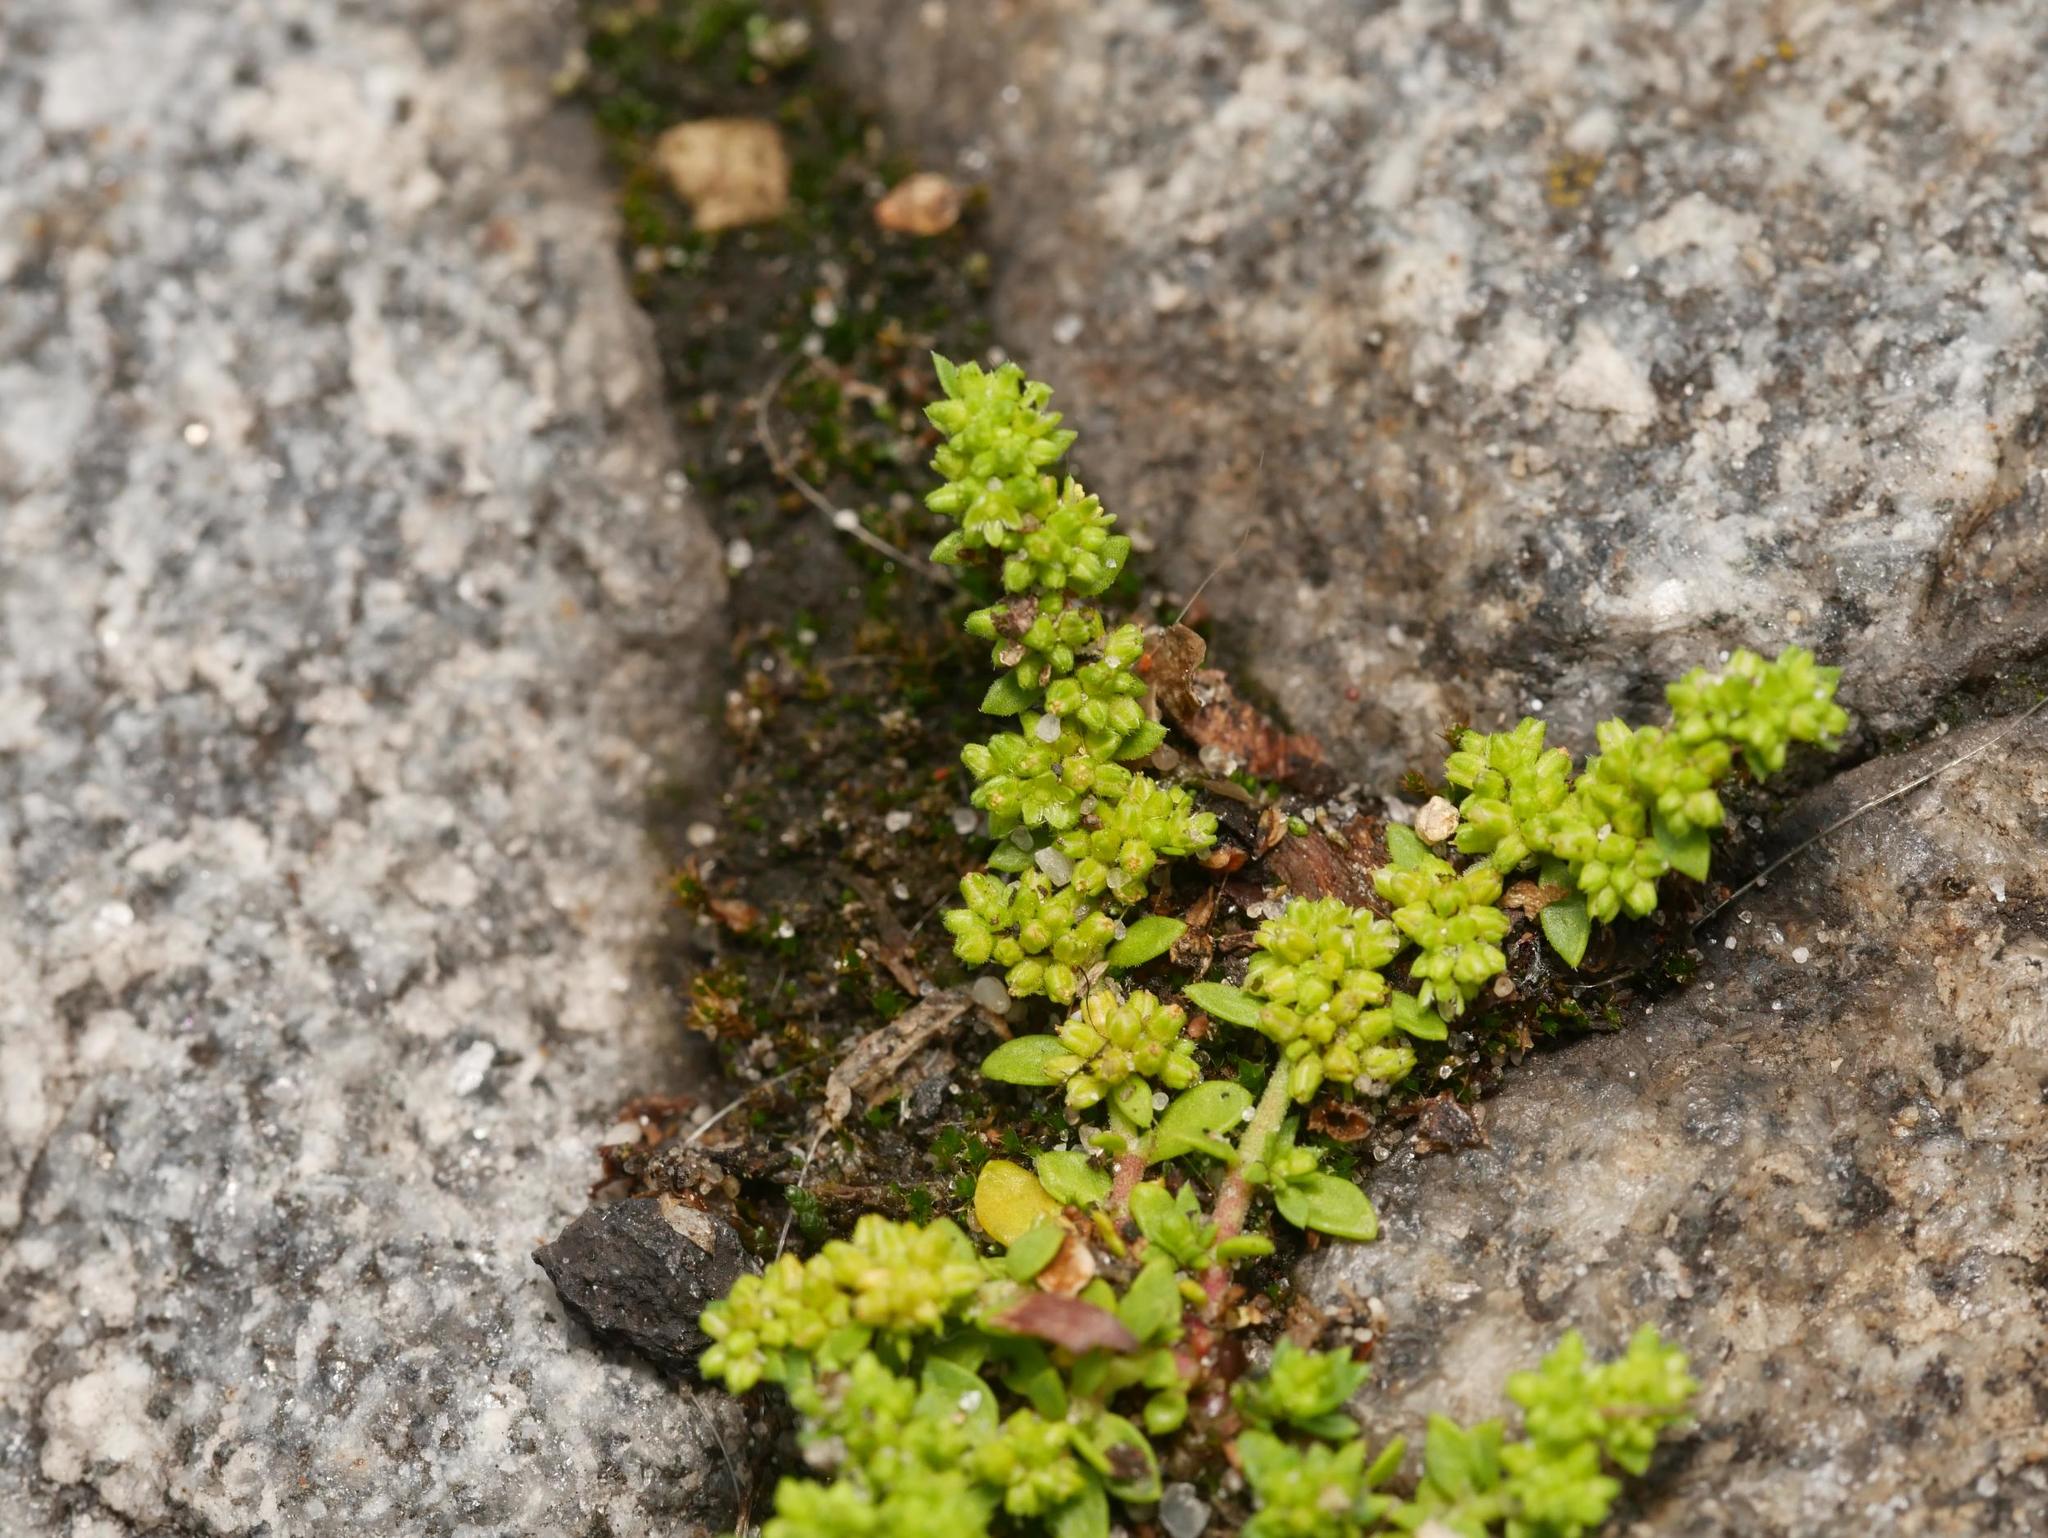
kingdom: Plantae
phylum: Tracheophyta
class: Magnoliopsida
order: Caryophyllales
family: Caryophyllaceae
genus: Herniaria
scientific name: Herniaria glabra
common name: Smooth rupturewort
